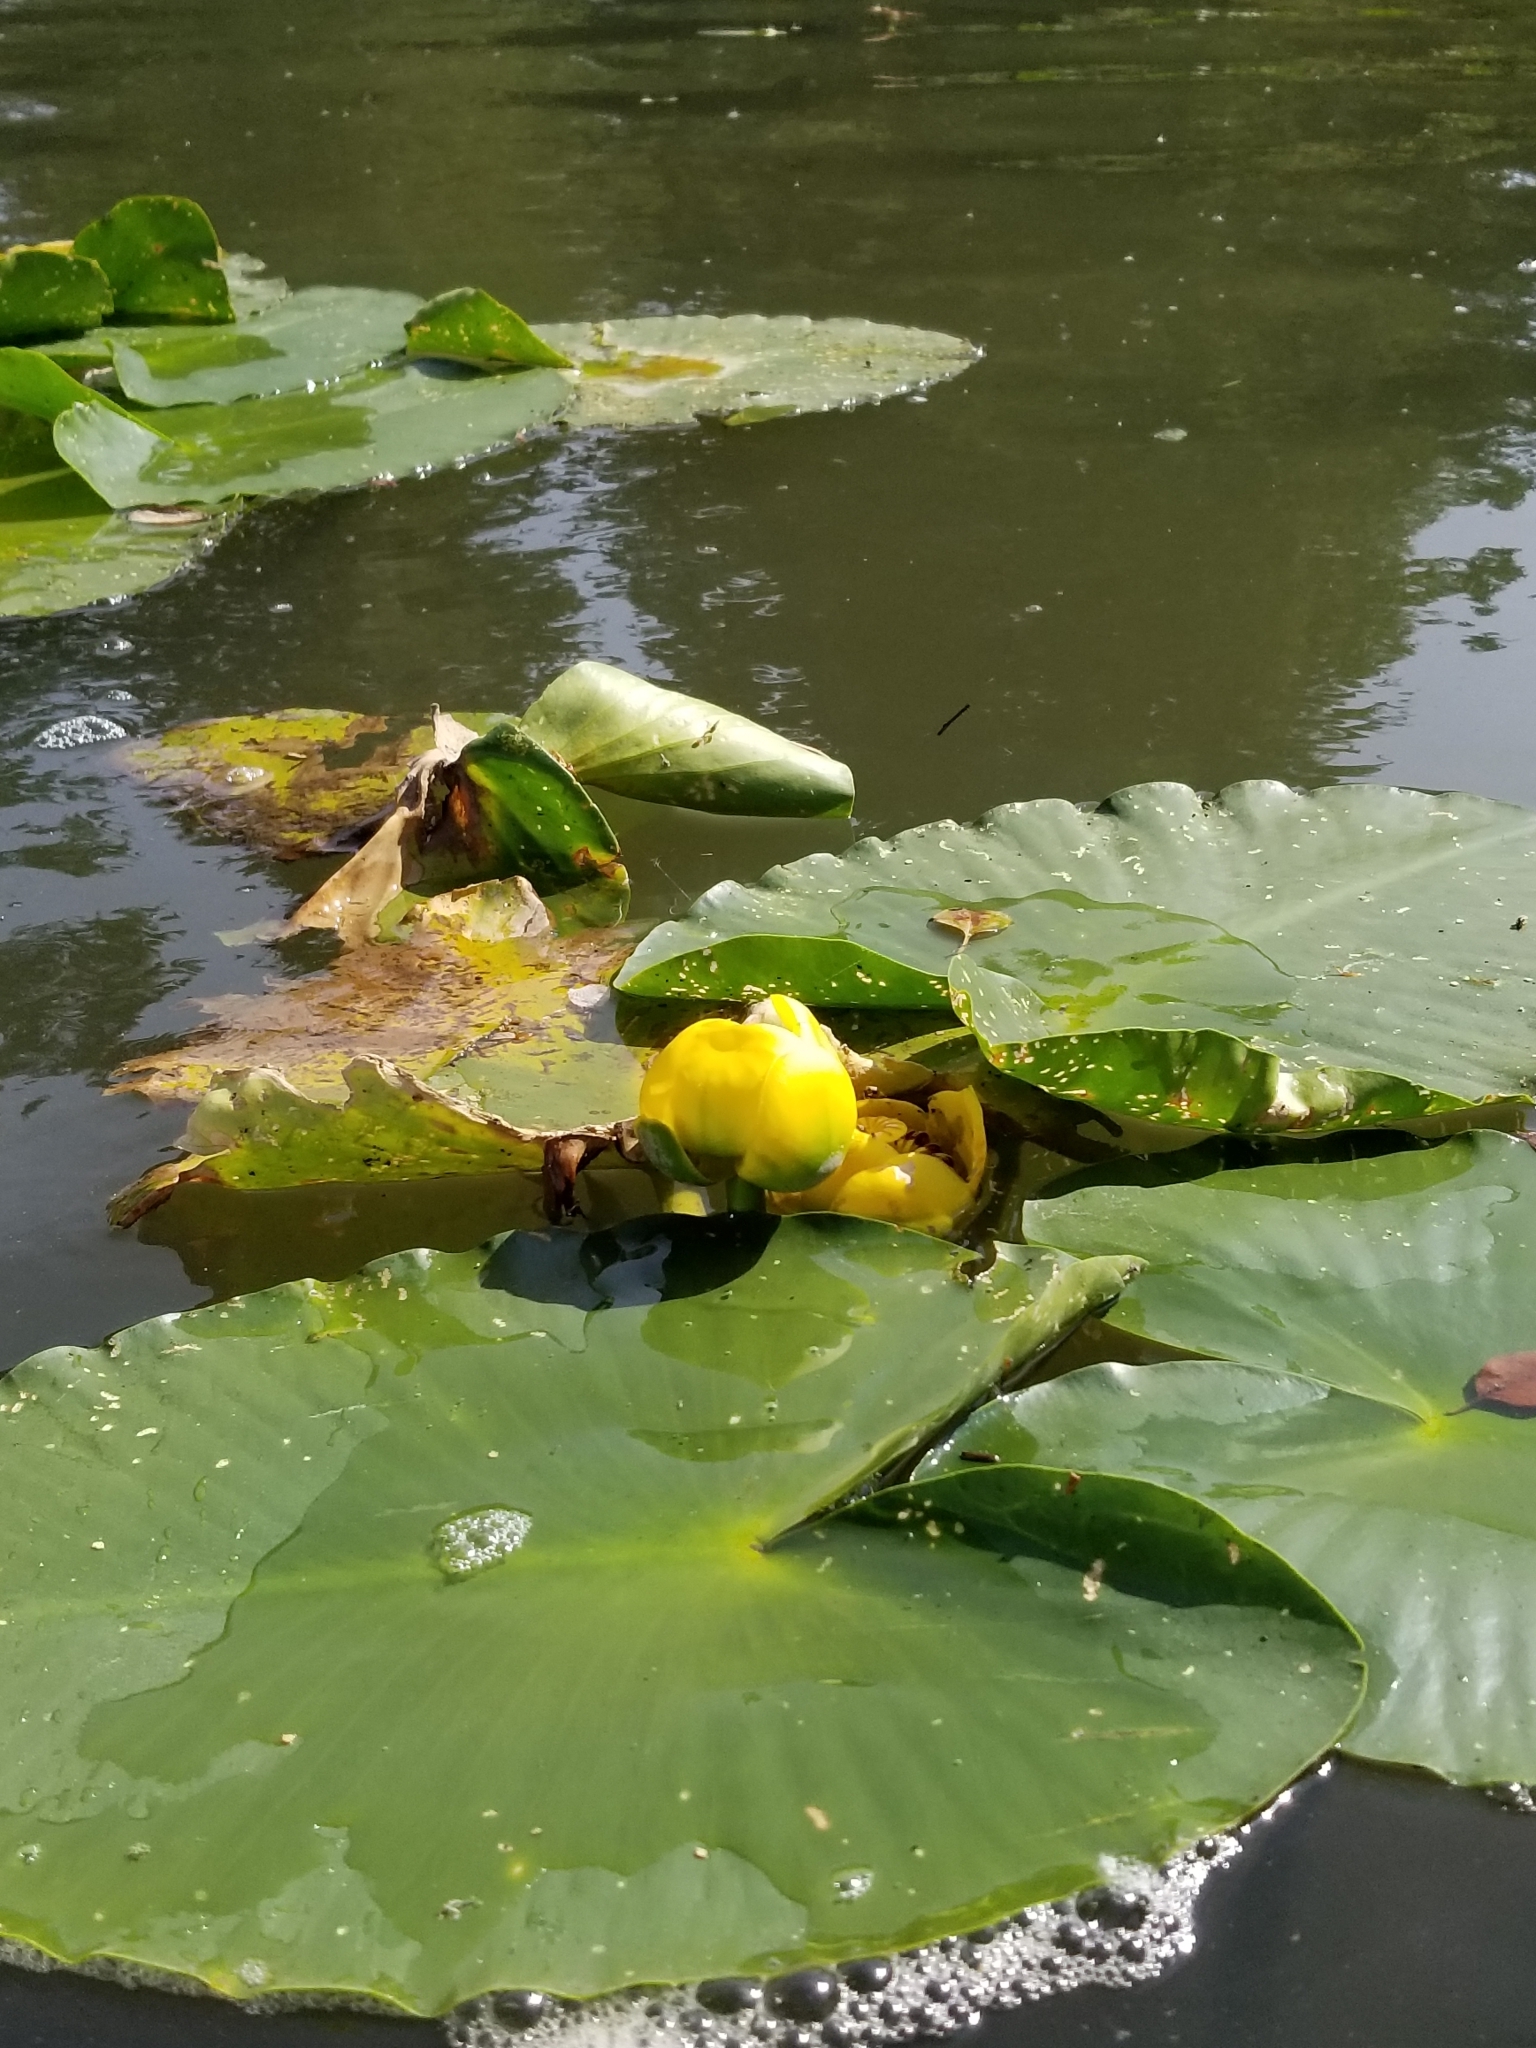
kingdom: Plantae
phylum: Tracheophyta
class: Magnoliopsida
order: Nymphaeales
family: Nymphaeaceae
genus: Nuphar
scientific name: Nuphar polysepala
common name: Rocky mountain cow-lily
